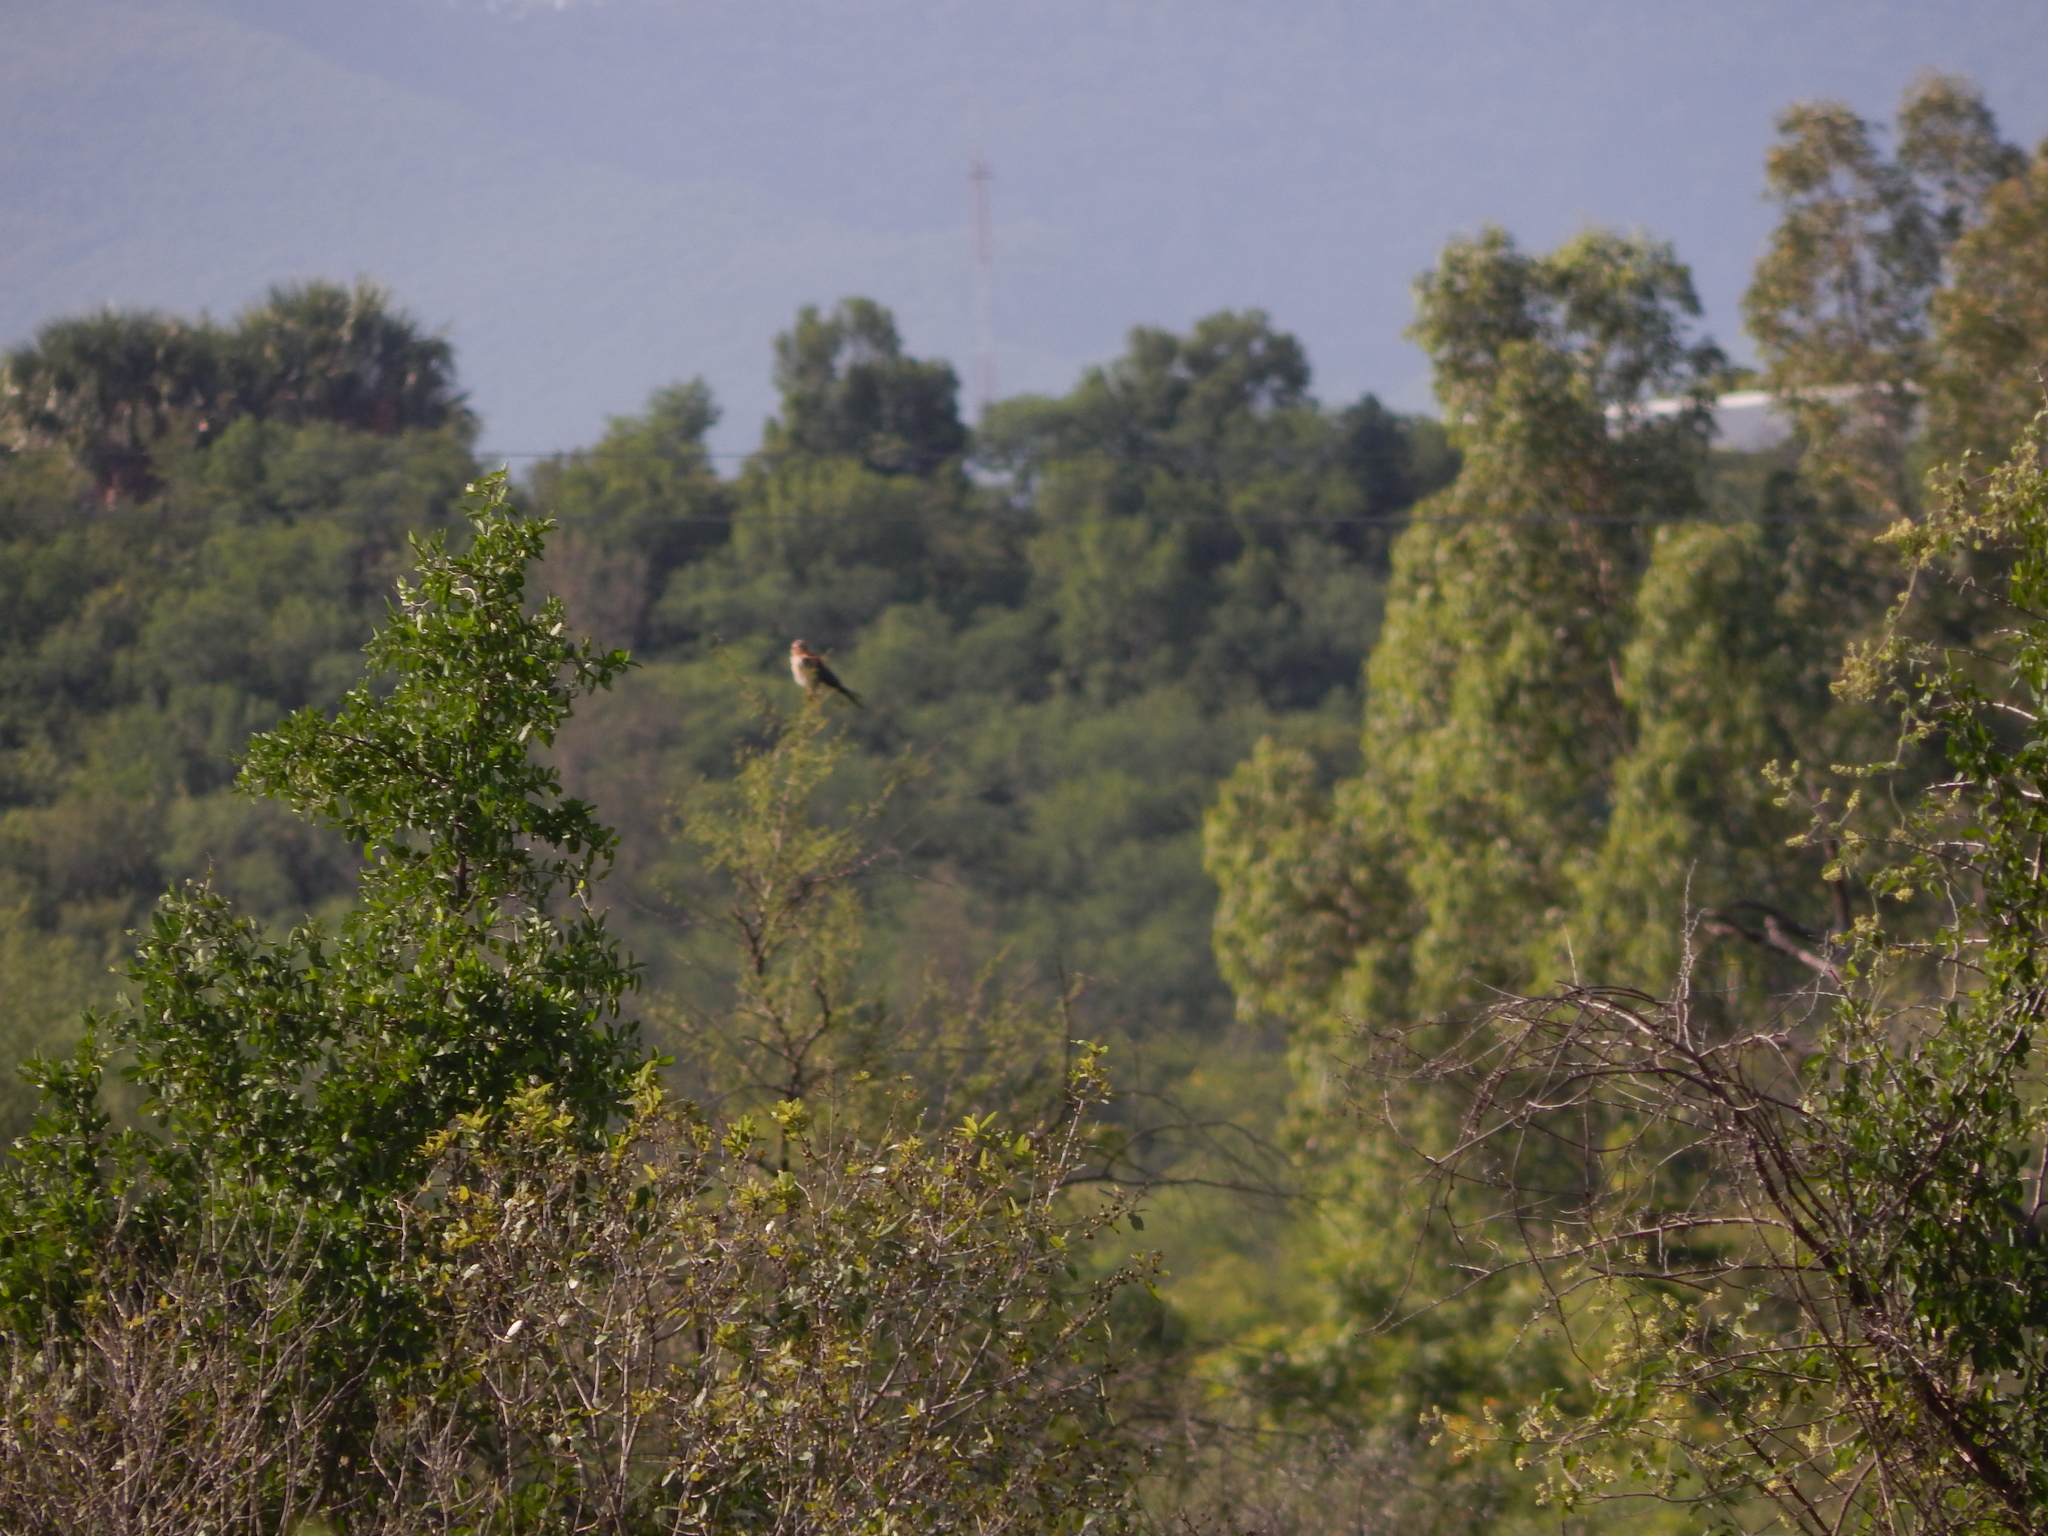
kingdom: Animalia
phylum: Chordata
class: Aves
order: Falconiformes
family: Falconidae
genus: Falco
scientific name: Falco sparverius
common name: American kestrel
